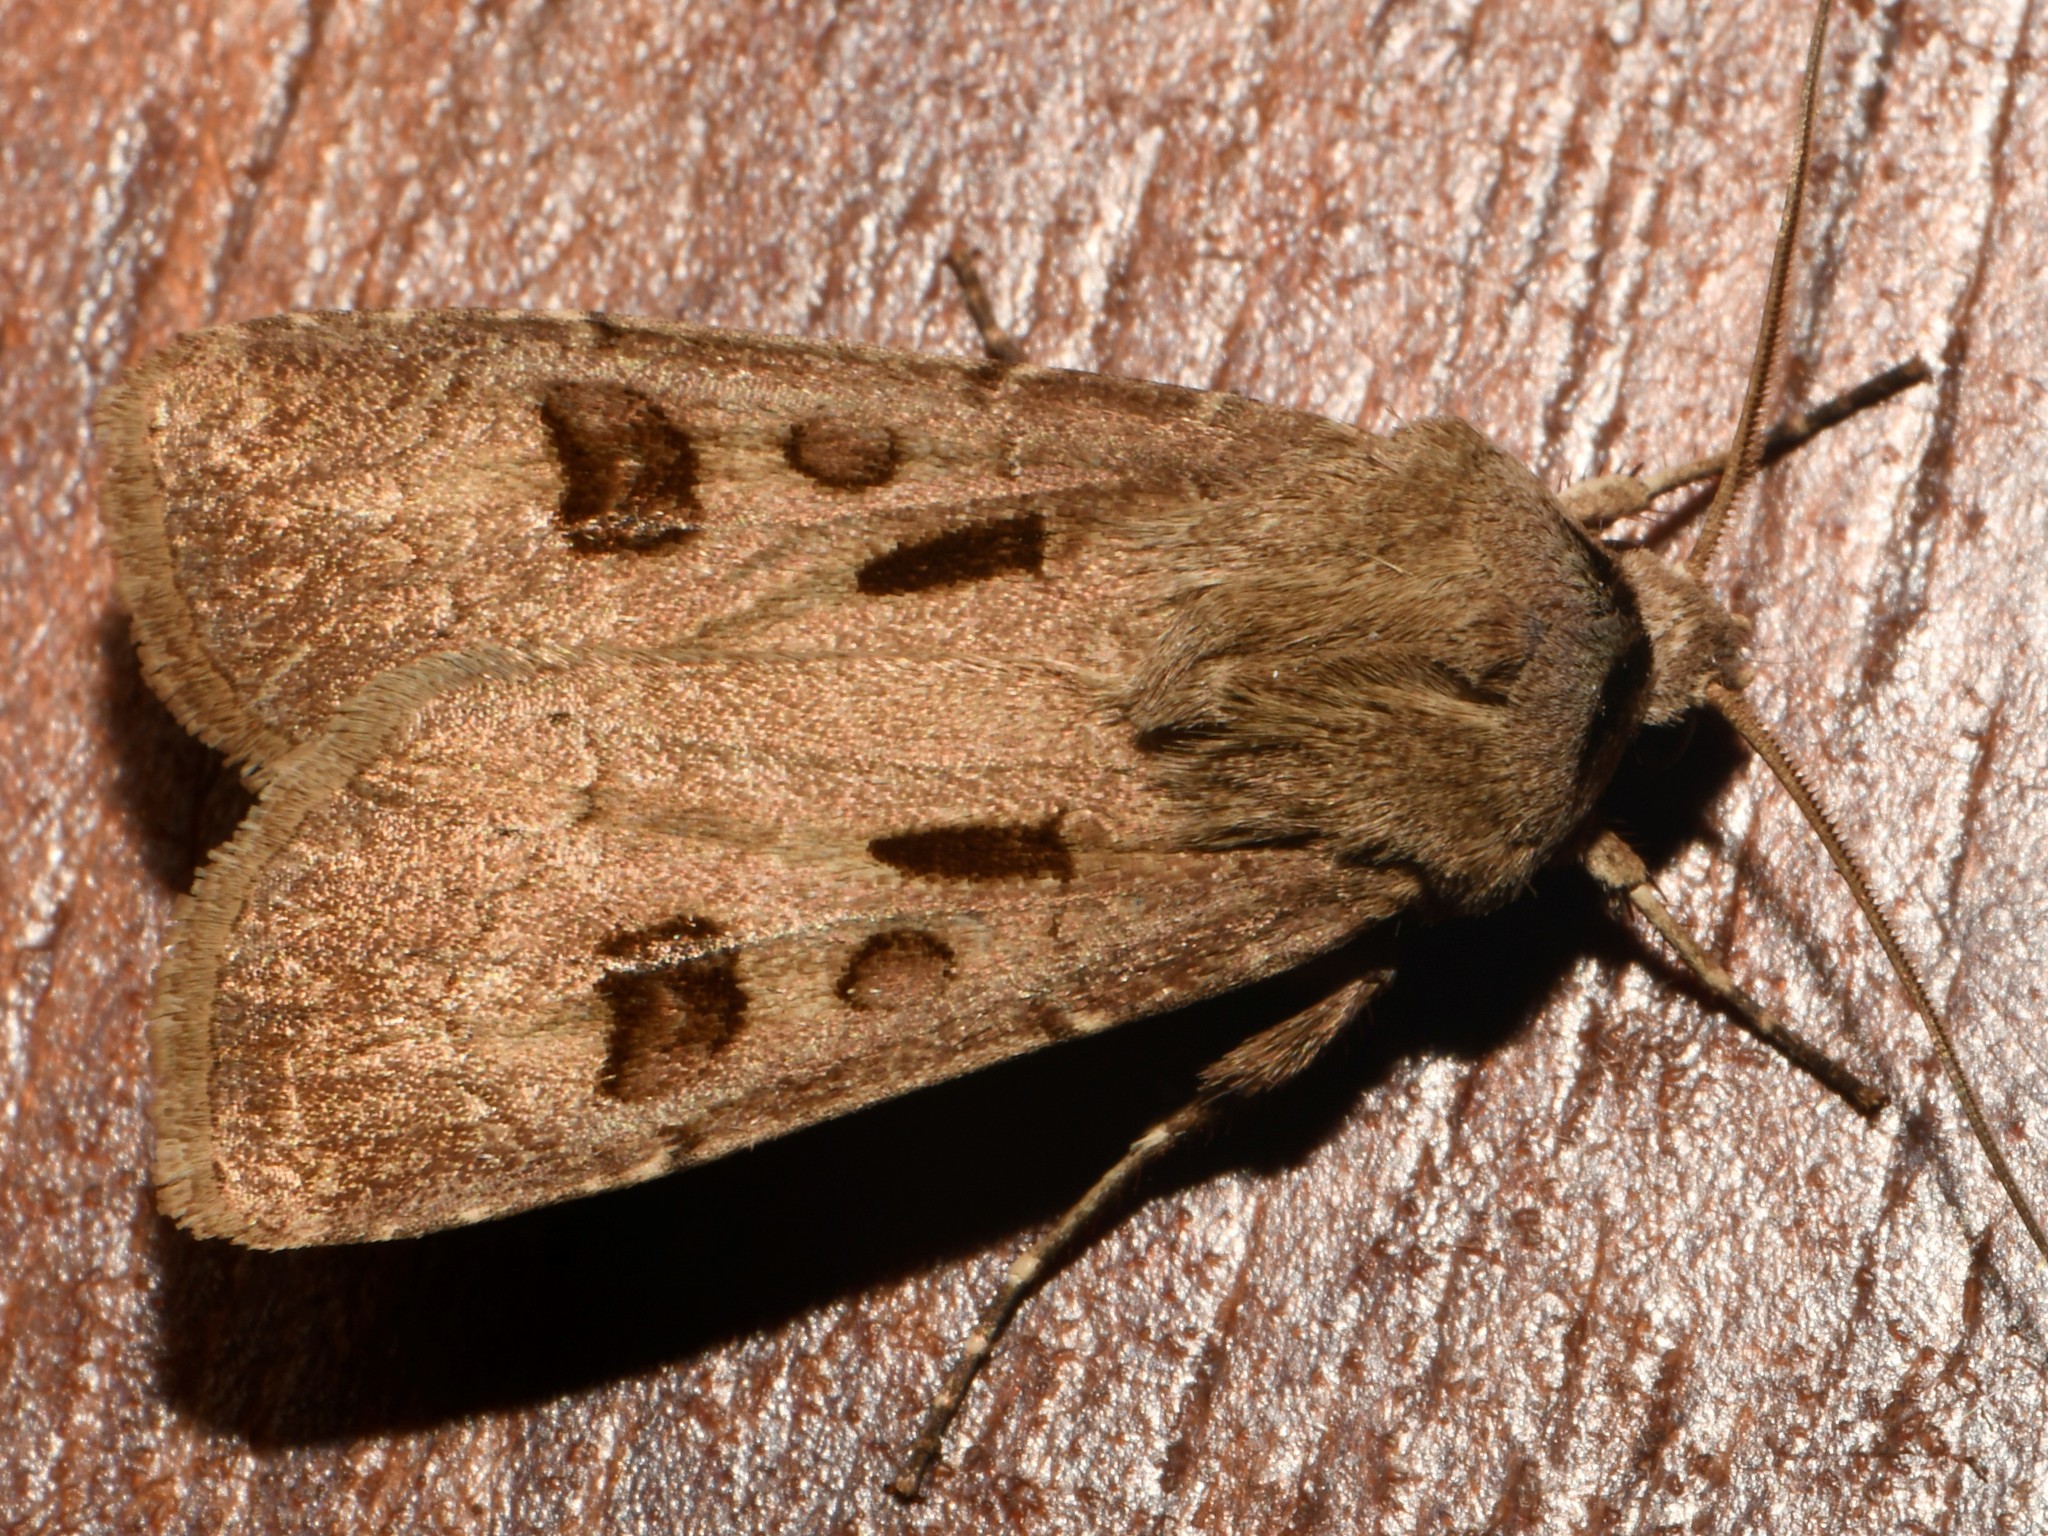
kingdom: Animalia
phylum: Arthropoda
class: Insecta
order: Lepidoptera
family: Noctuidae
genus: Agrotis
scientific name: Agrotis exclamationis
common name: Heart and dart
